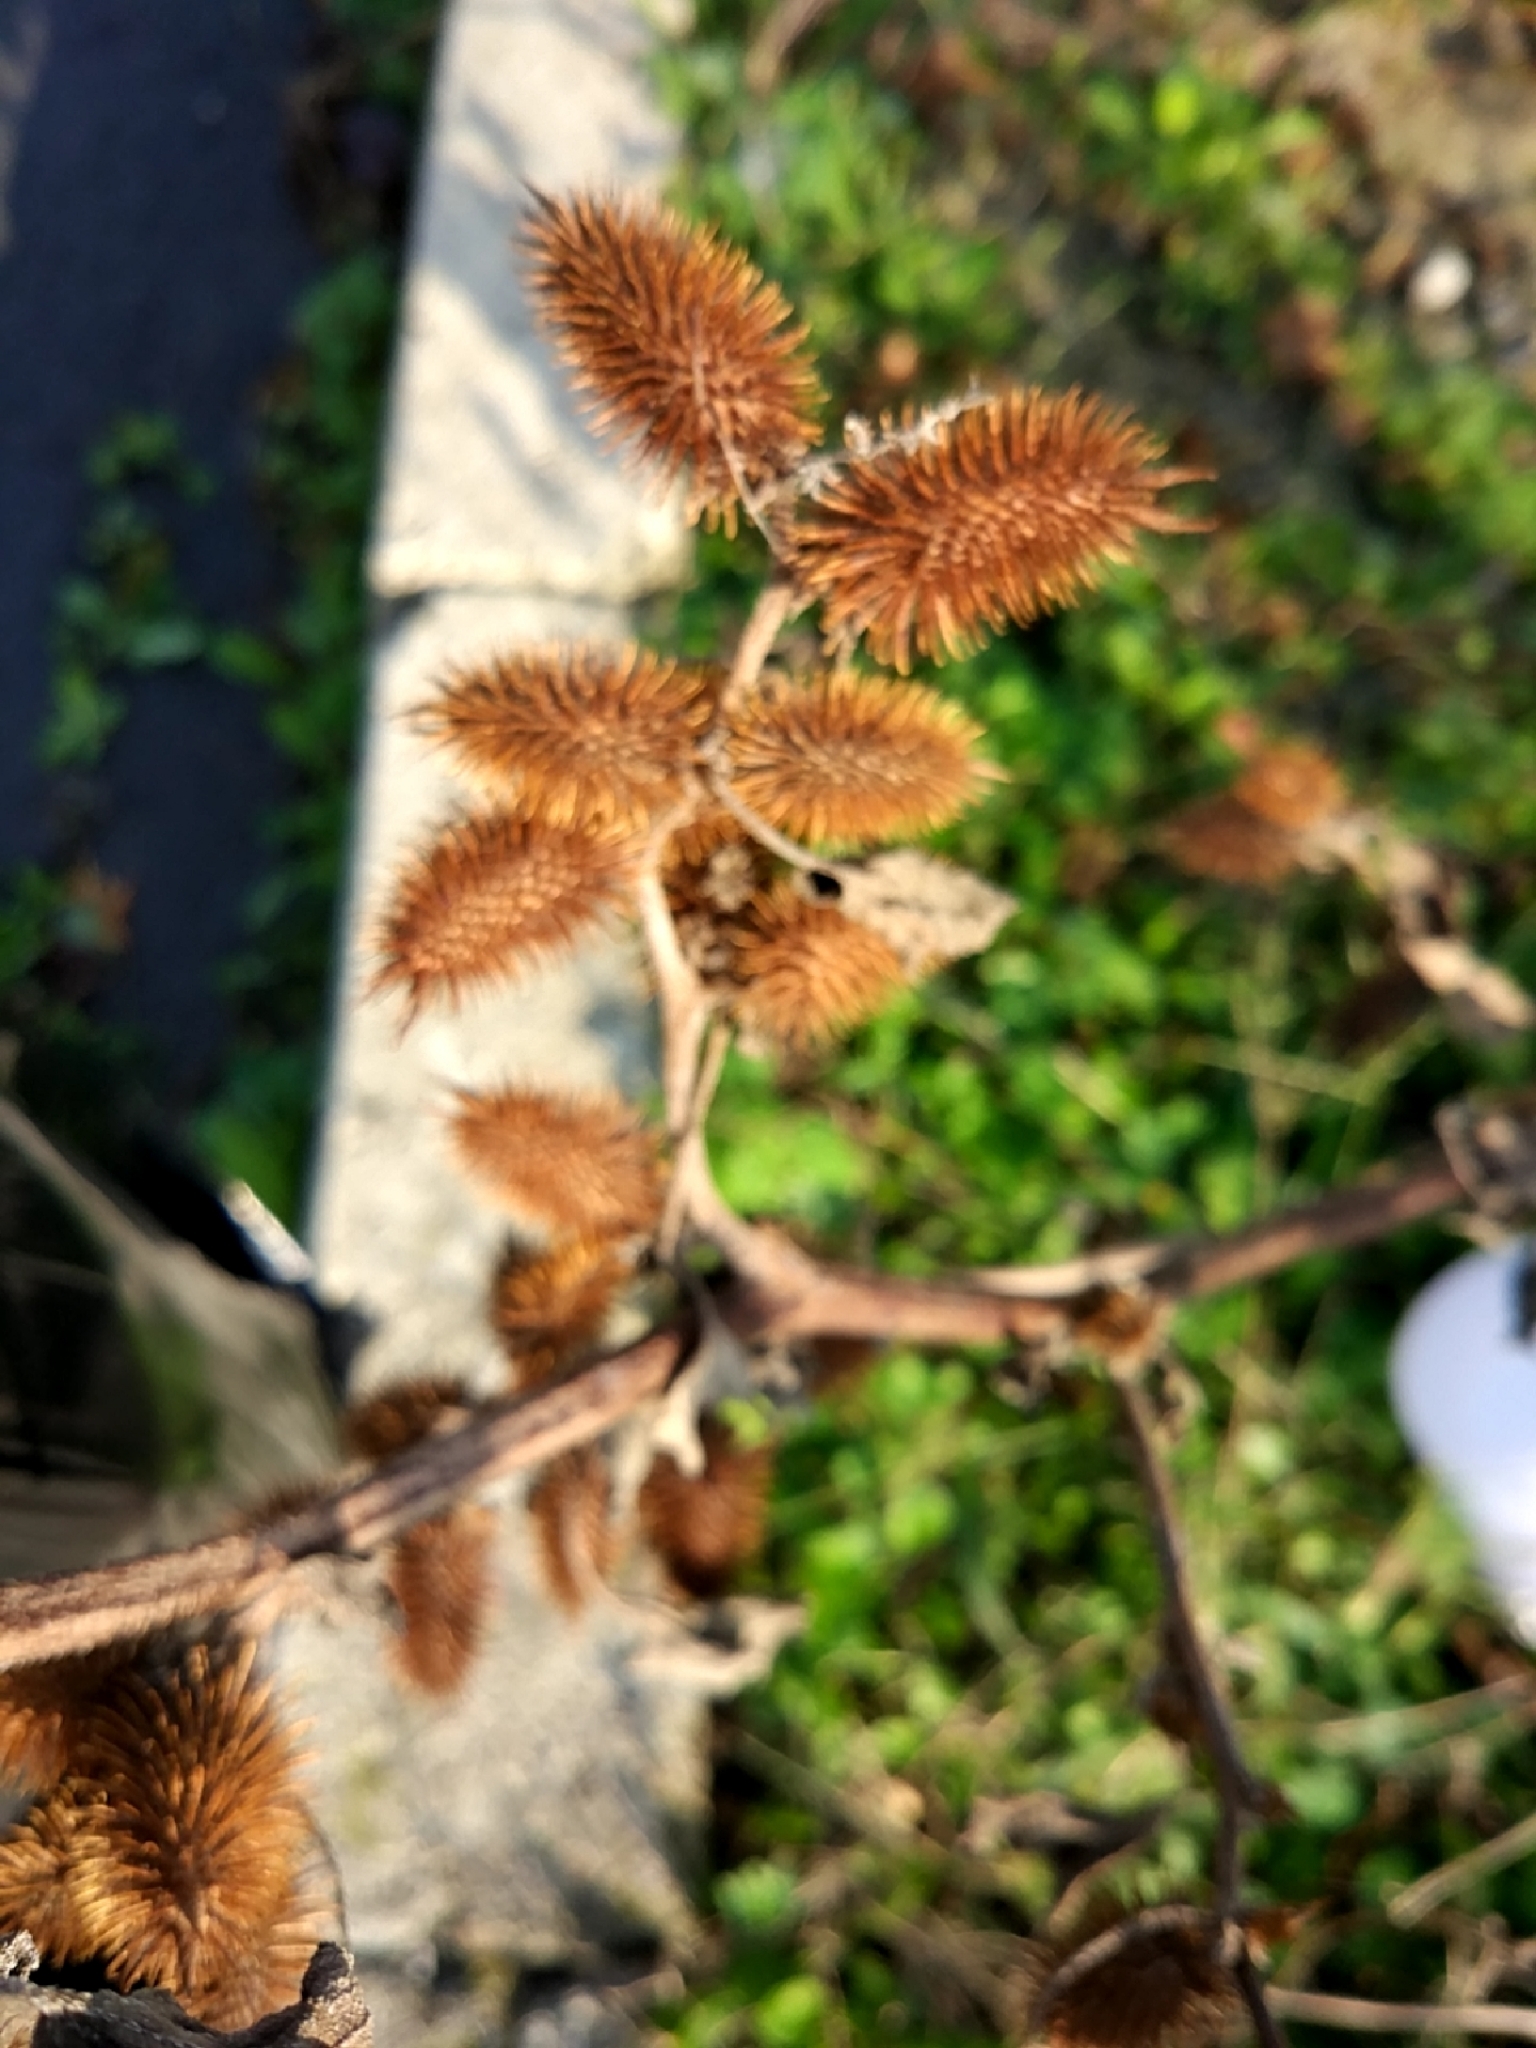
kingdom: Plantae
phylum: Tracheophyta
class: Magnoliopsida
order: Asterales
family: Asteraceae
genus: Xanthium
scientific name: Xanthium strumarium
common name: Rough cocklebur
